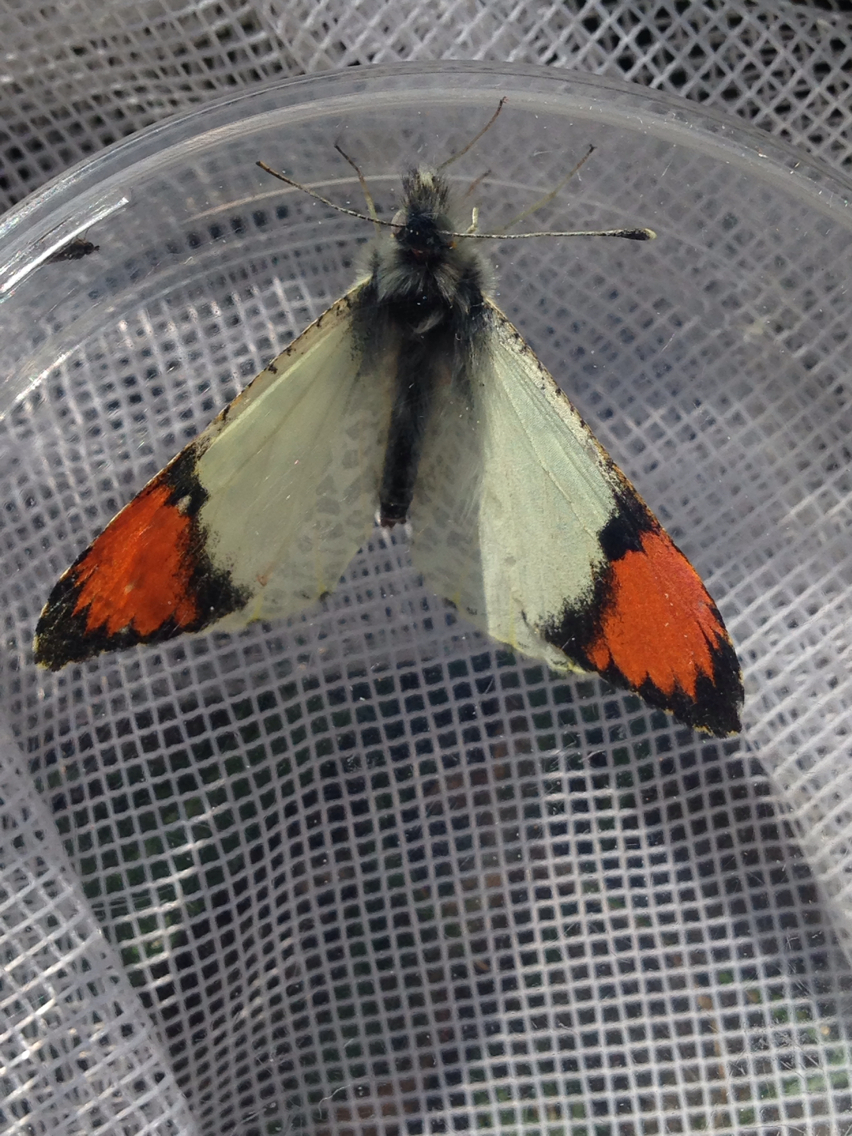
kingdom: Animalia
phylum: Arthropoda
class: Insecta
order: Lepidoptera
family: Pieridae
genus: Anthocharis
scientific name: Anthocharis sara
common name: Sara's orangetip
